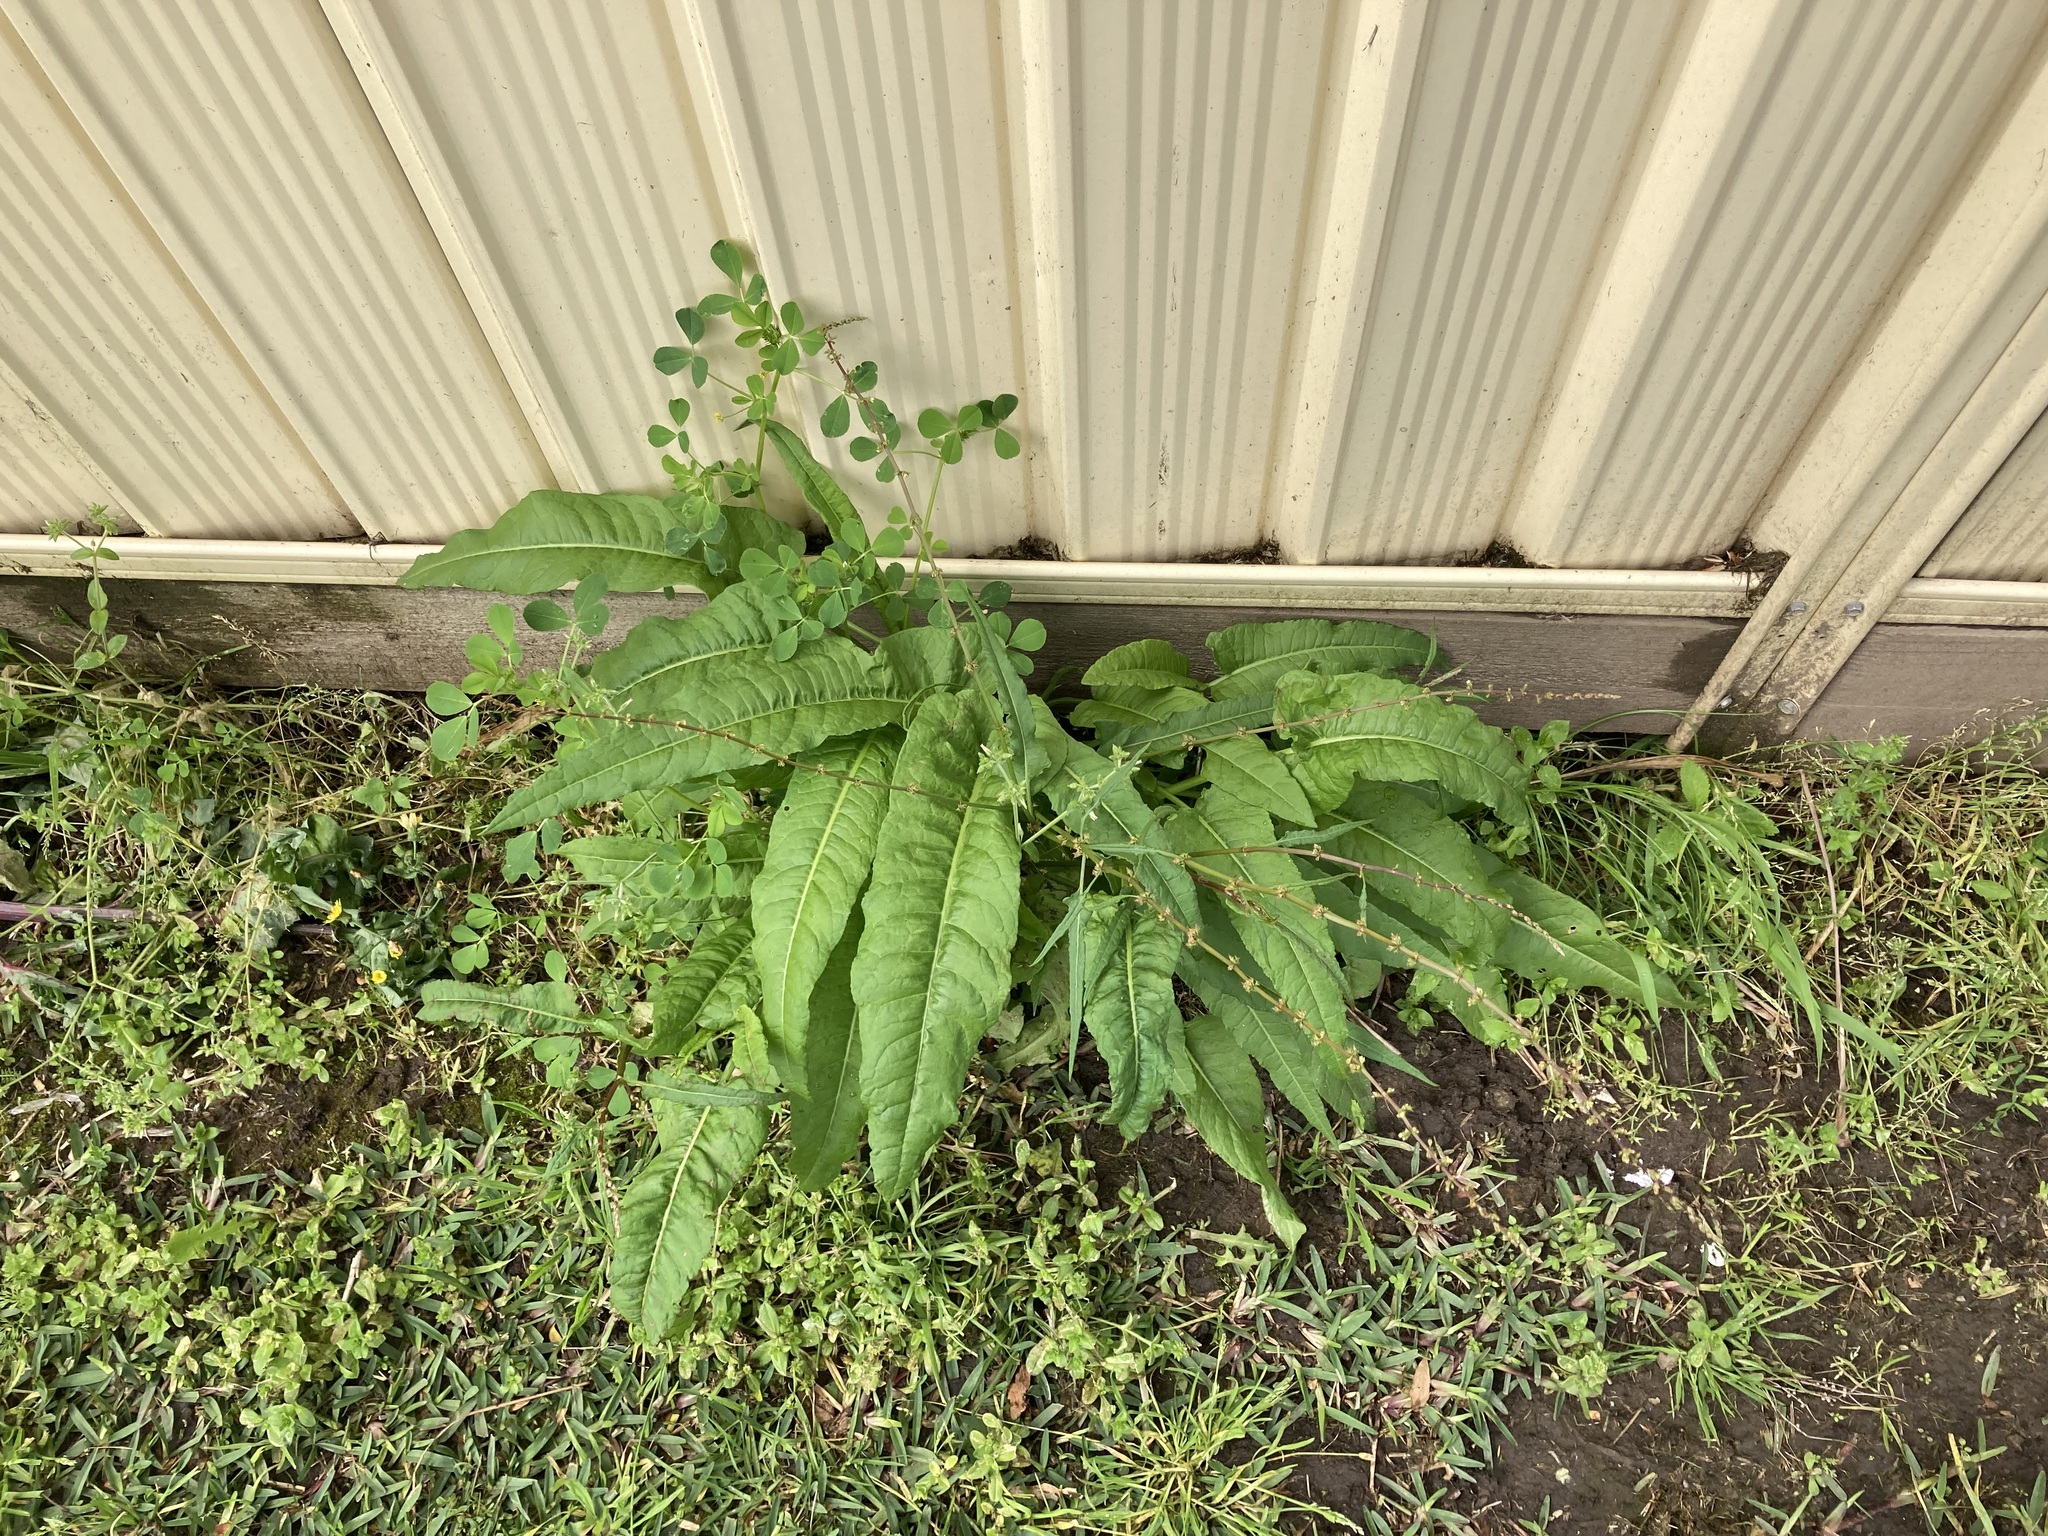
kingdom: Plantae
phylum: Tracheophyta
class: Magnoliopsida
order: Caryophyllales
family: Polygonaceae
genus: Rumex
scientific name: Rumex brownii
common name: Hooked dock
